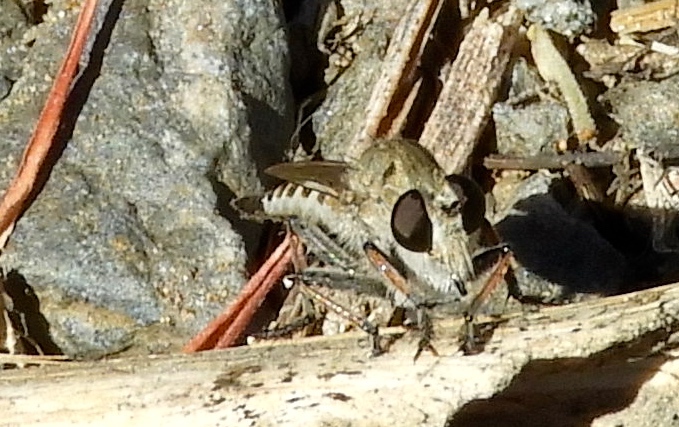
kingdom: Animalia
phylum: Arthropoda
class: Insecta
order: Diptera
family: Asilidae
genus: Efferia
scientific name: Efferia
